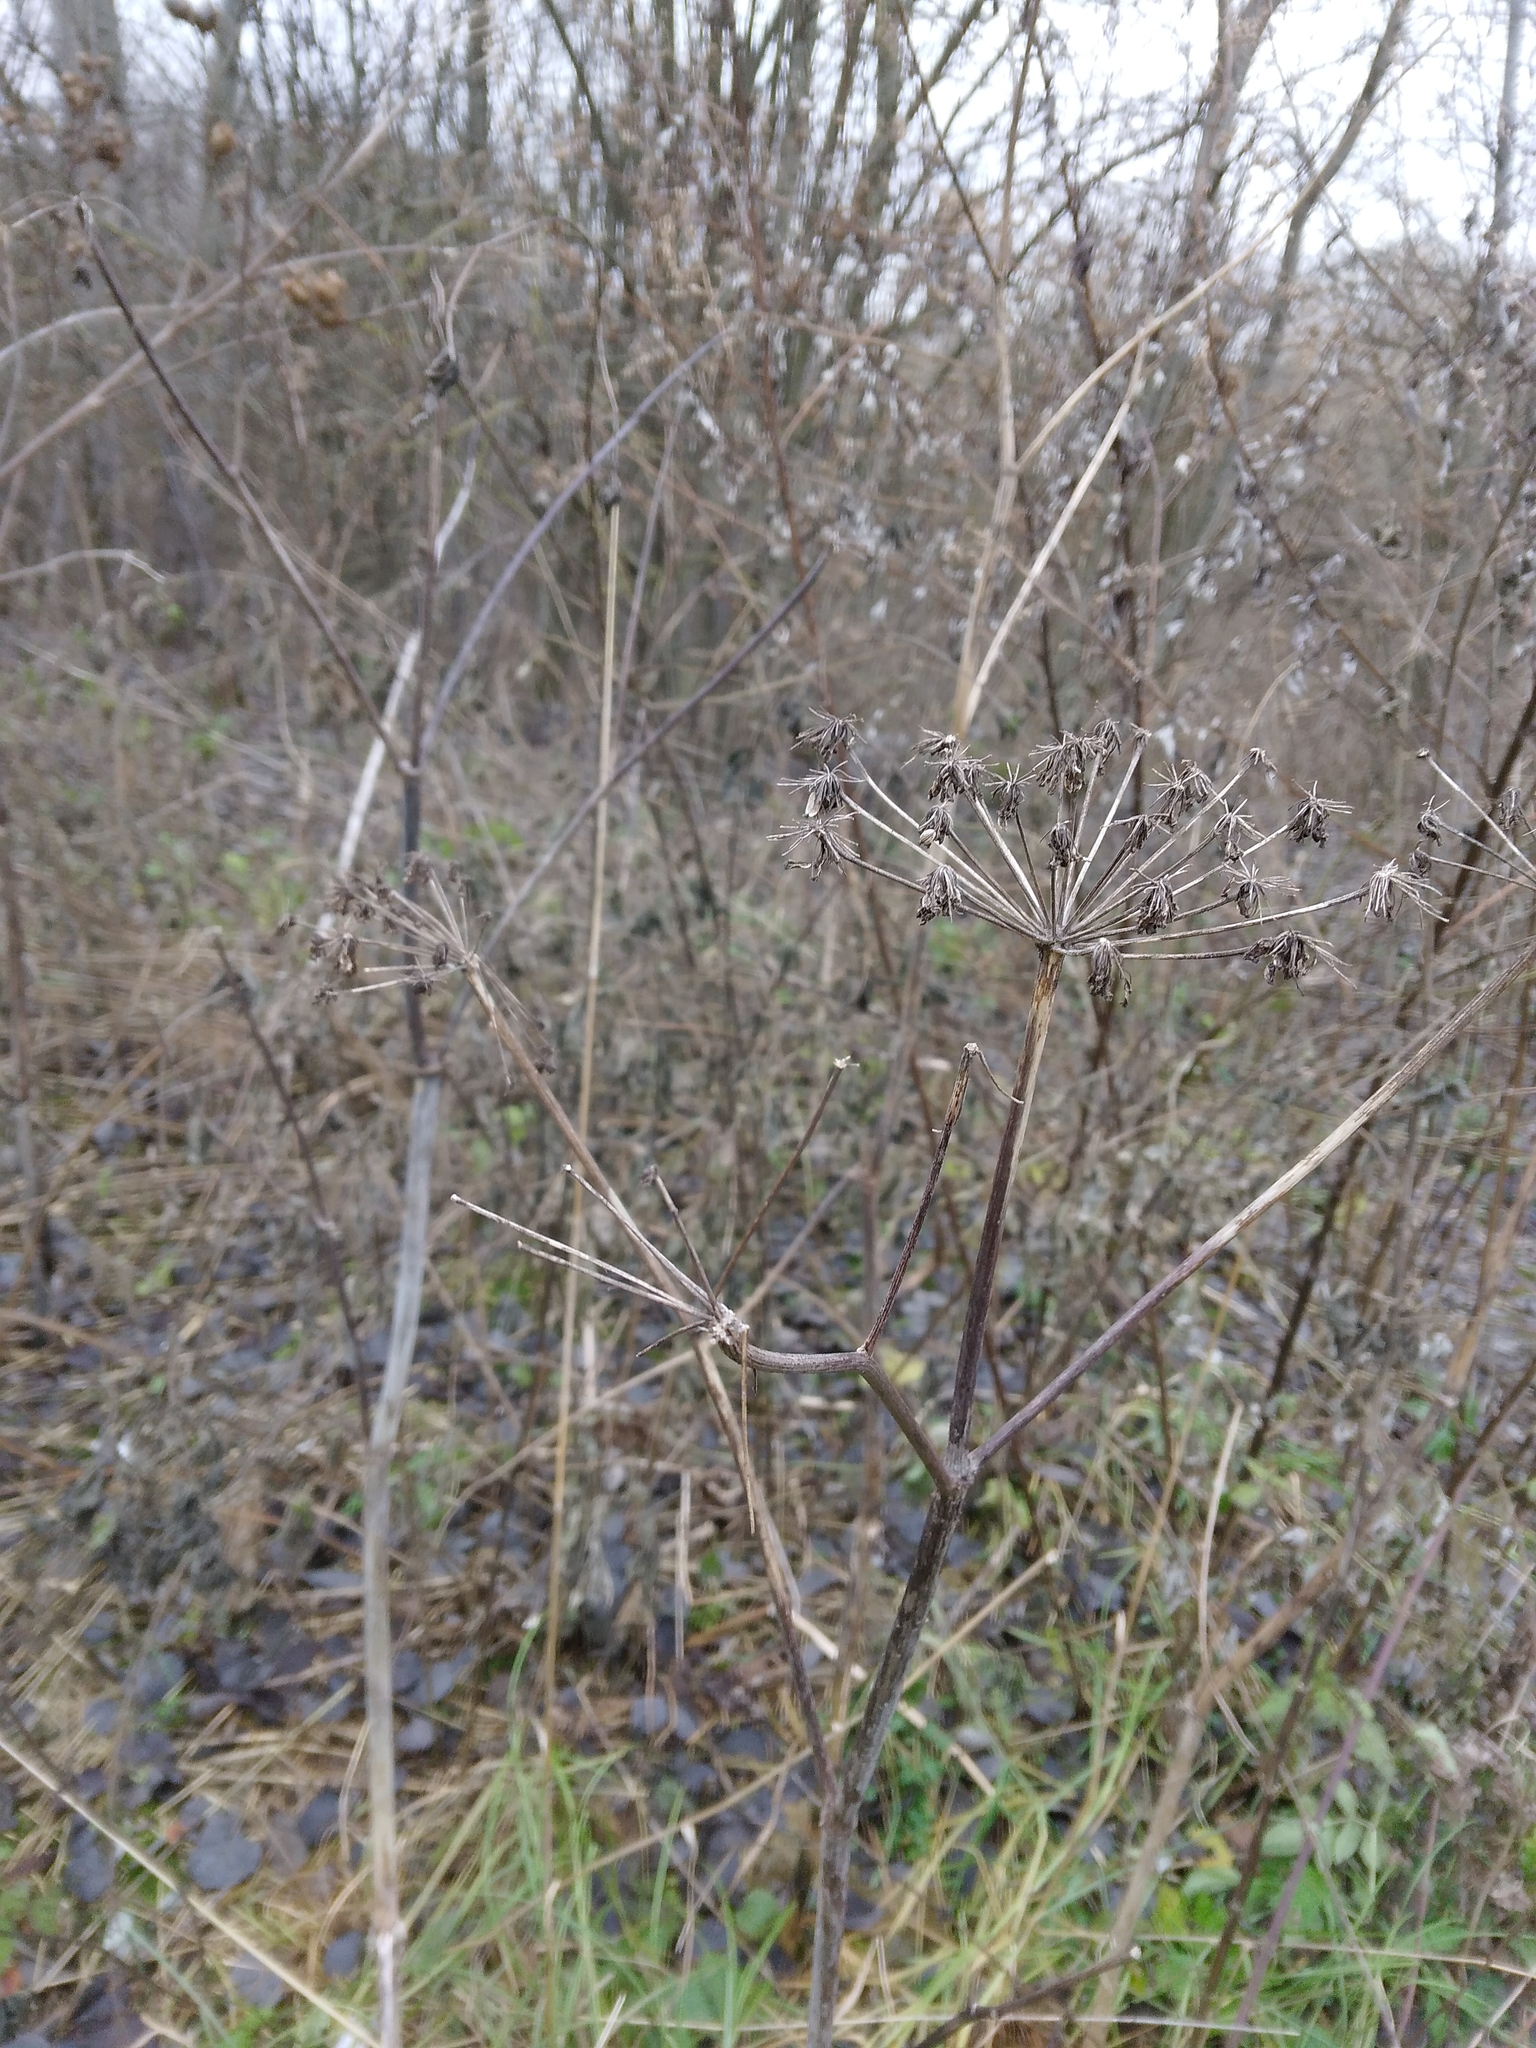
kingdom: Plantae
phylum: Tracheophyta
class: Magnoliopsida
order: Apiales
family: Apiaceae
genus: Angelica
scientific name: Angelica sylvestris
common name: Wild angelica
